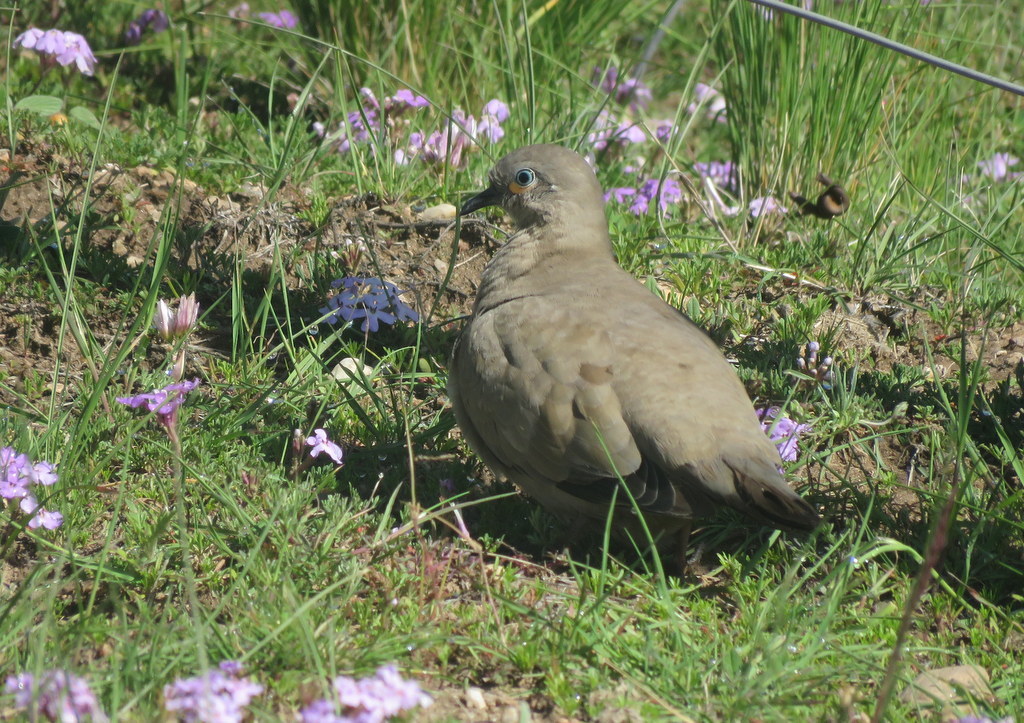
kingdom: Animalia
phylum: Chordata
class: Aves
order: Columbiformes
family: Columbidae
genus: Metriopelia
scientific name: Metriopelia melanoptera
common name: Black-winged ground dove
